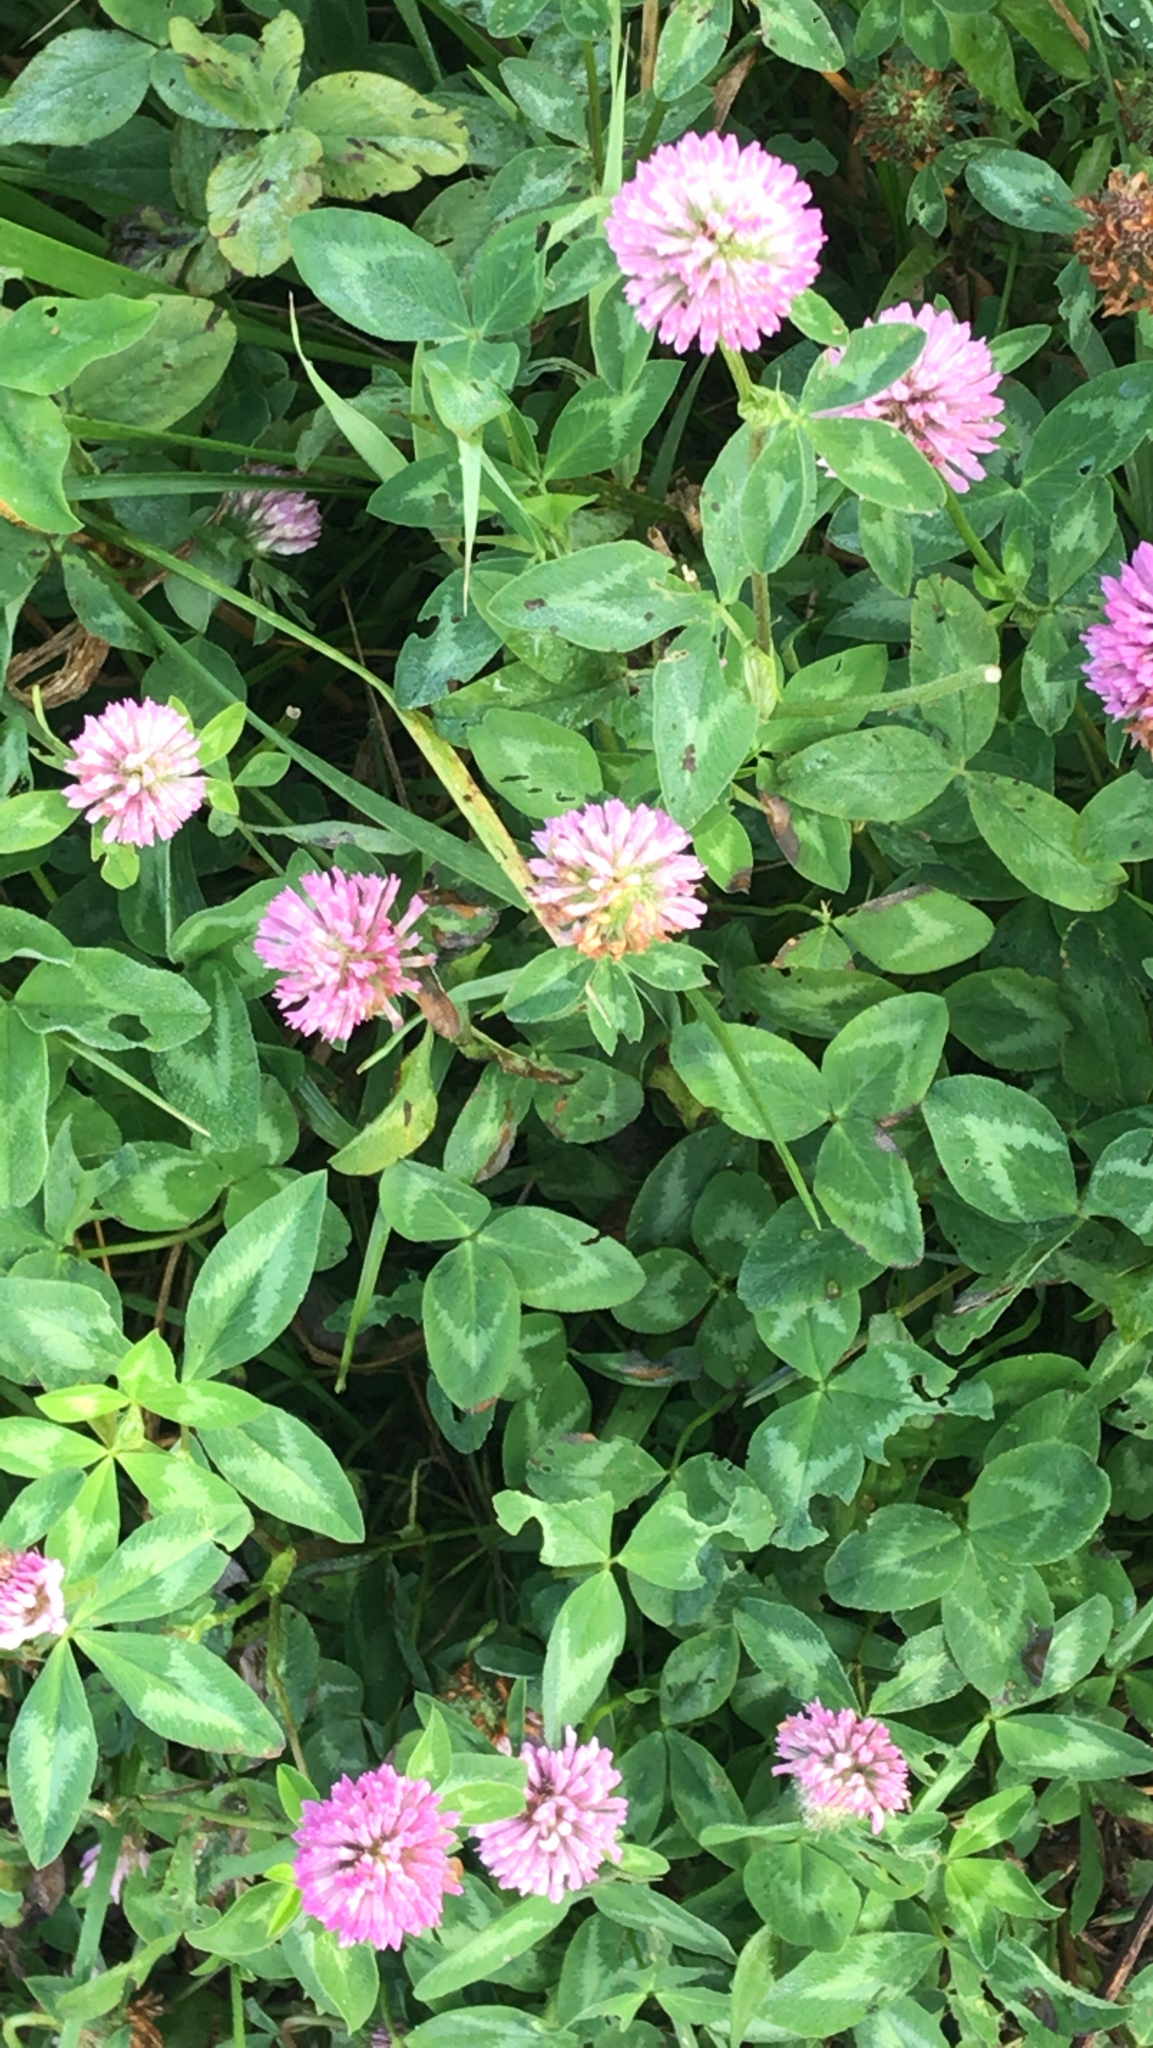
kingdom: Plantae
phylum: Tracheophyta
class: Magnoliopsida
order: Fabales
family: Fabaceae
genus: Trifolium
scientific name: Trifolium pratense
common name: Red clover
